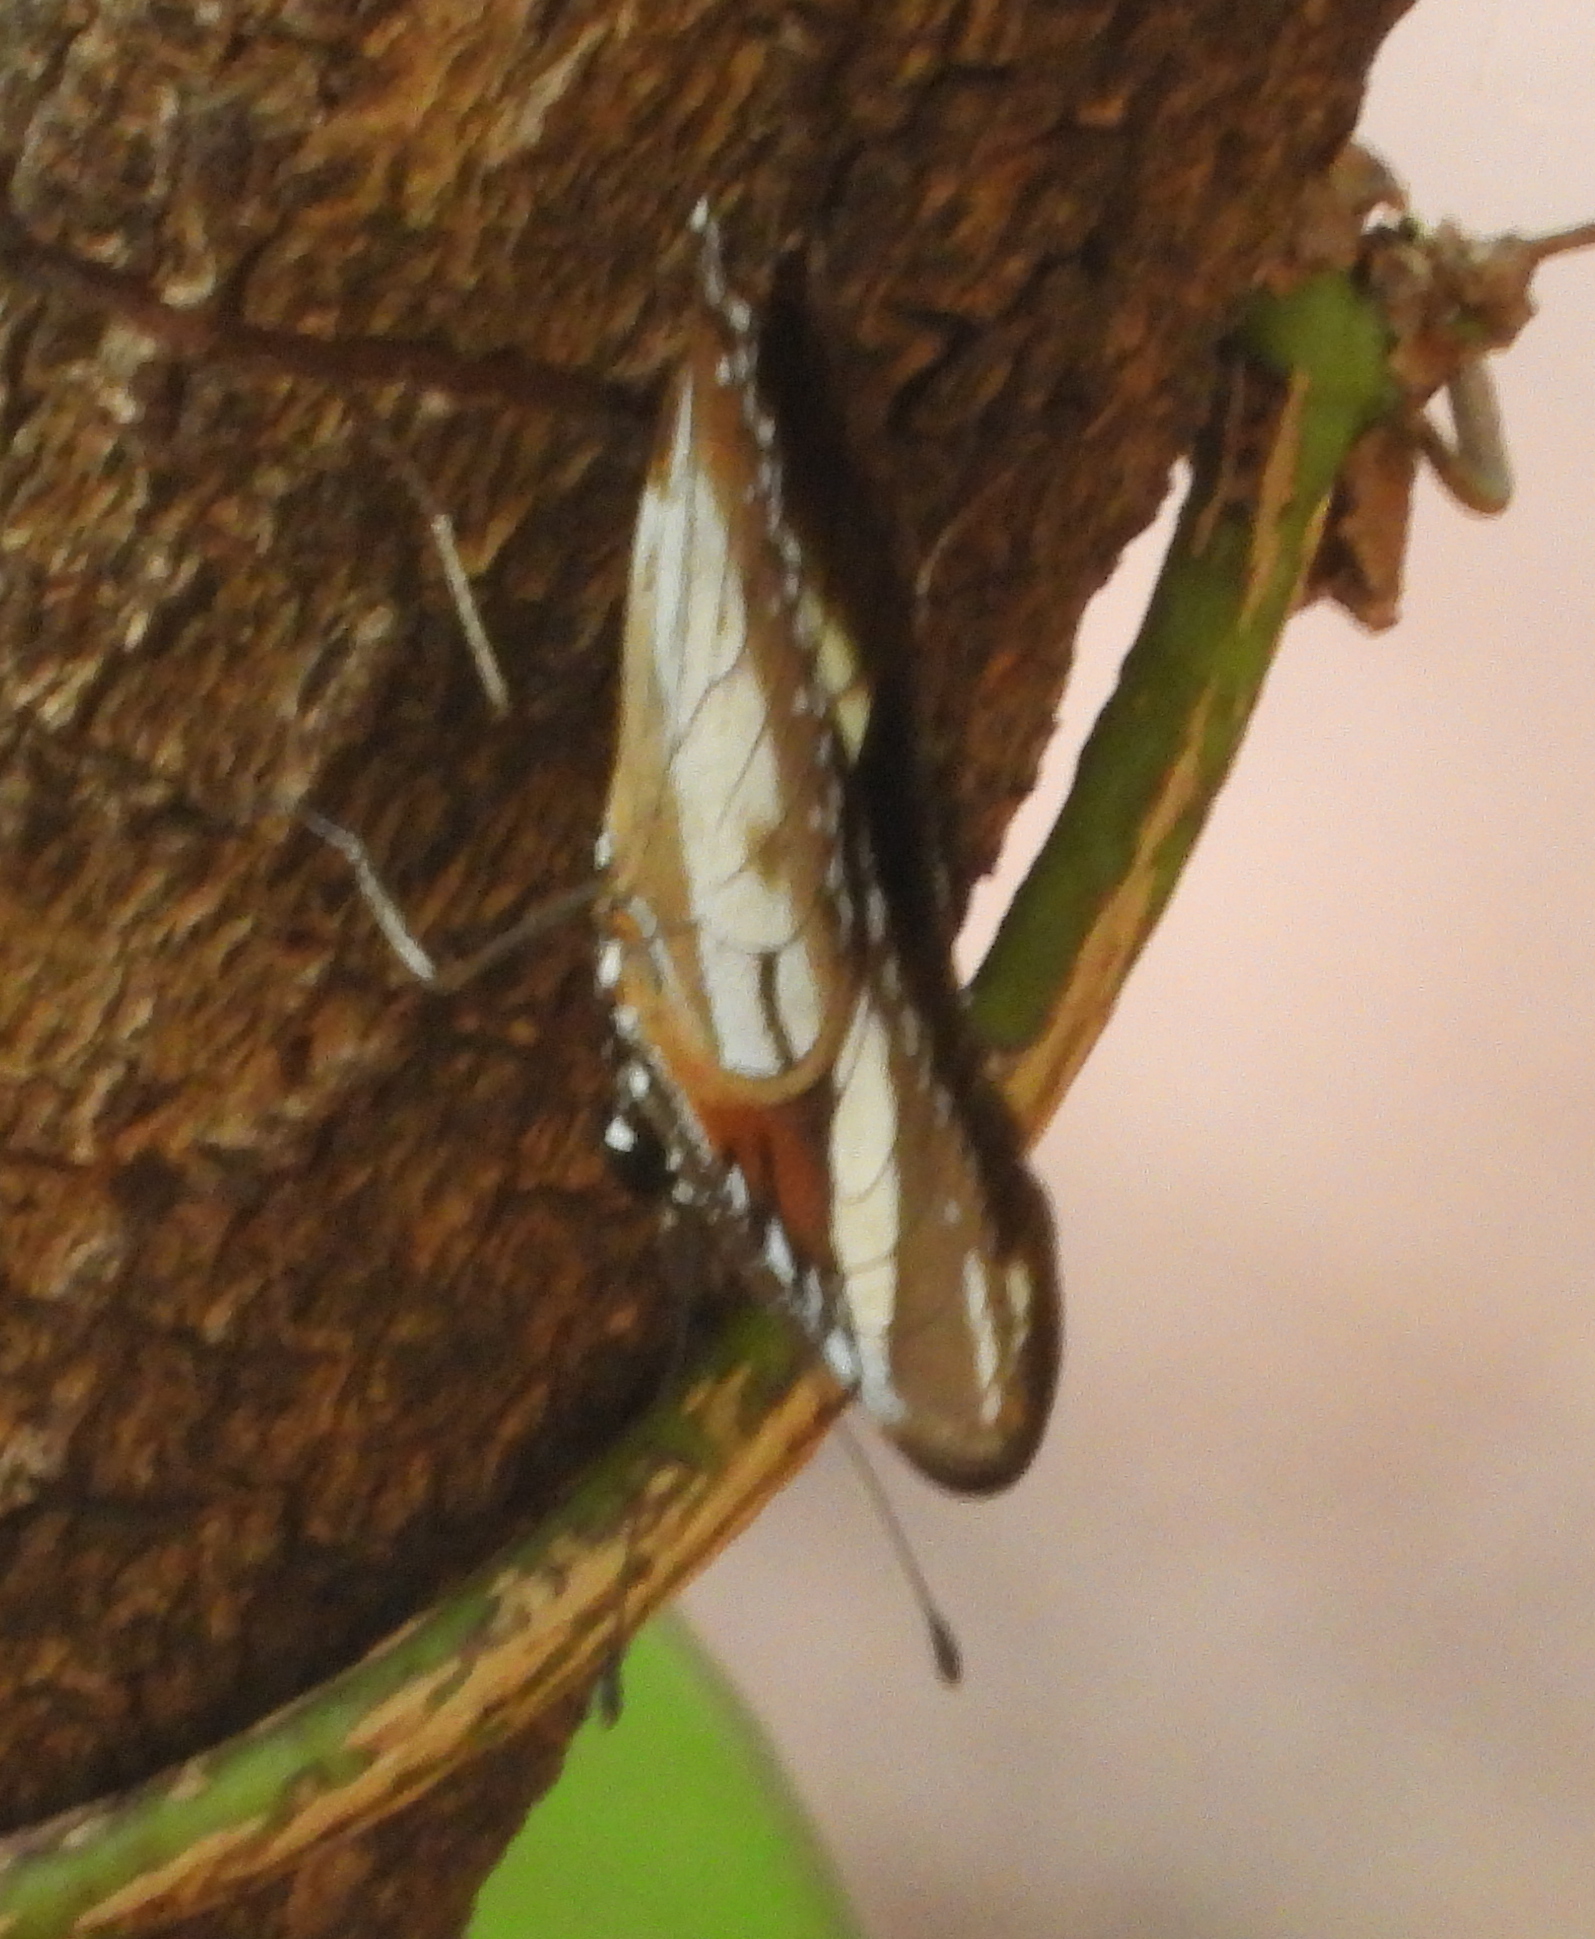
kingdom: Animalia
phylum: Arthropoda
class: Insecta
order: Lepidoptera
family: Nymphalidae
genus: Hypolimnas
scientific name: Hypolimnas misippus
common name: False plain tiger
